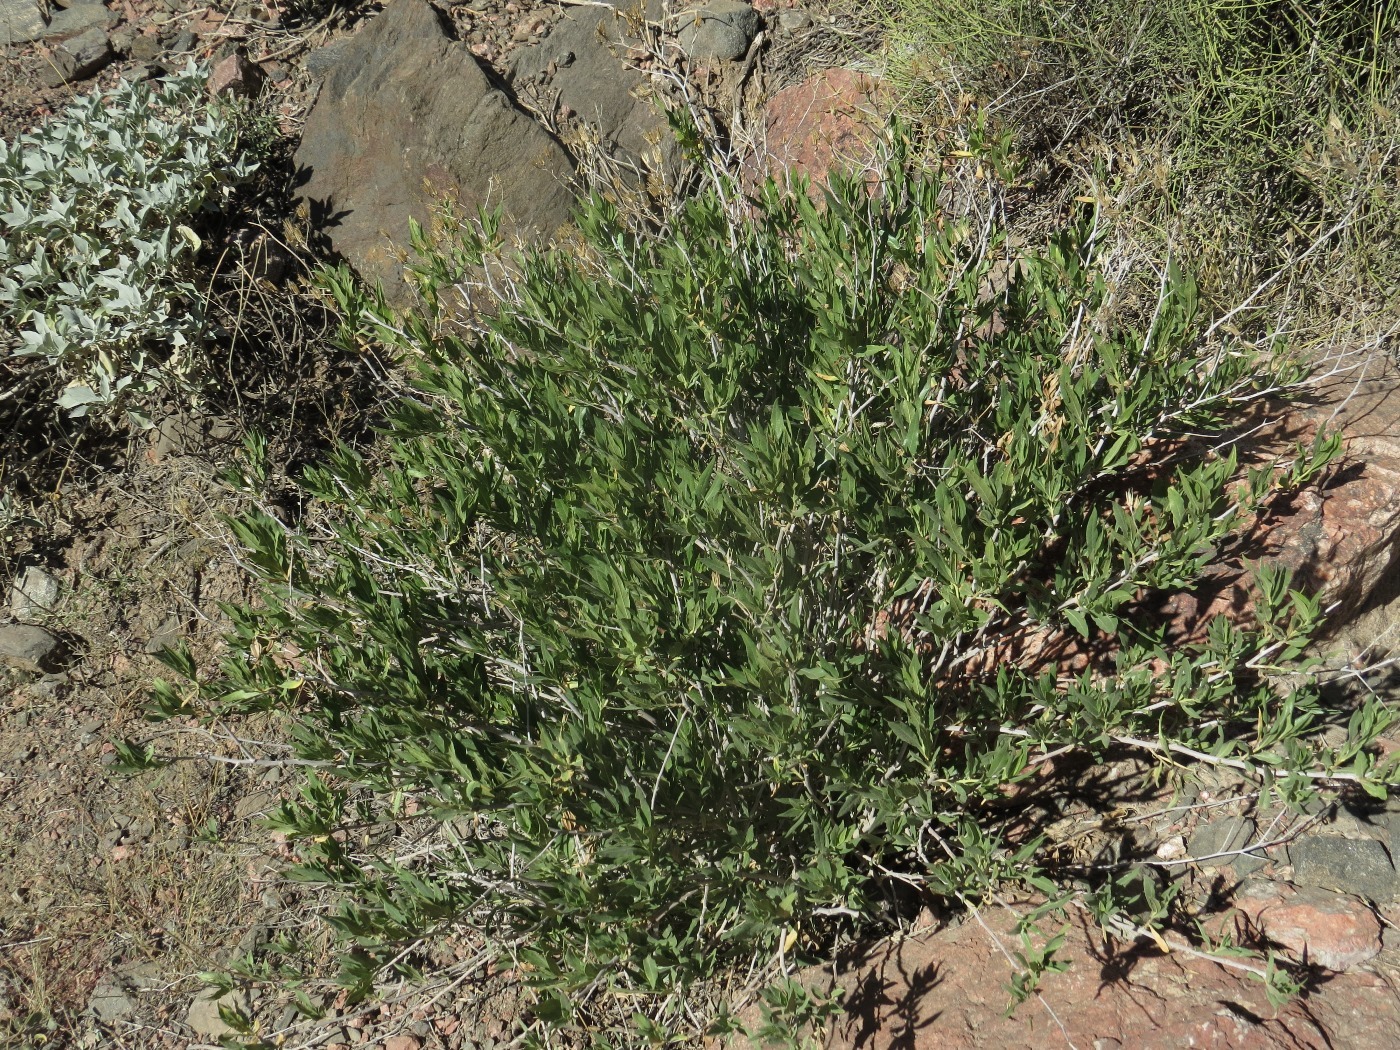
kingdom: Plantae
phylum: Tracheophyta
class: Magnoliopsida
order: Asterales
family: Asteraceae
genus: Trixis
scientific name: Trixis californica
